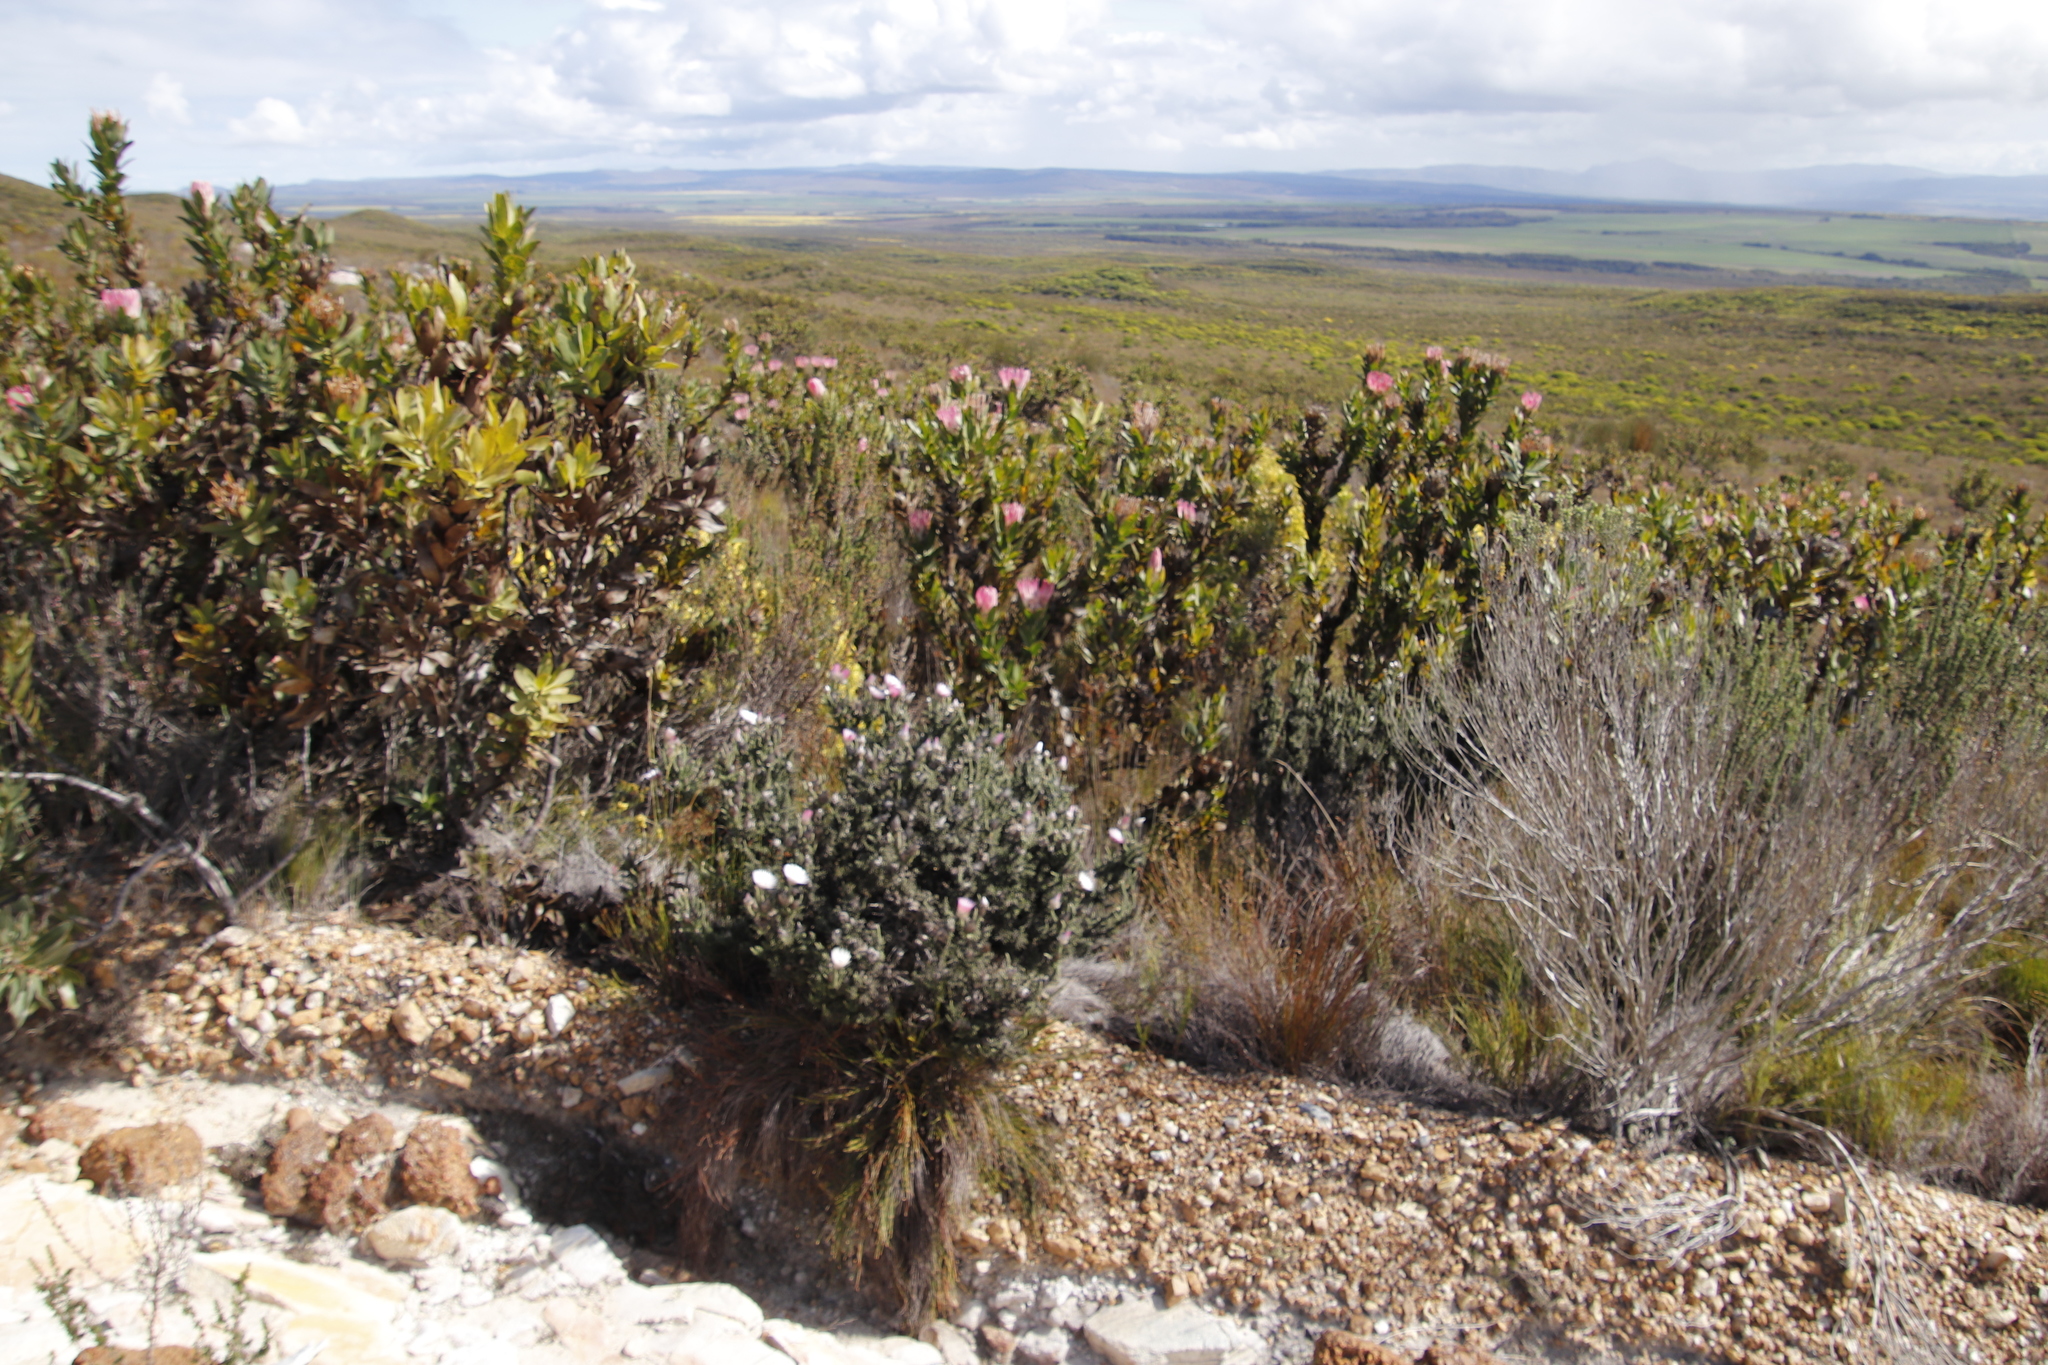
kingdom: Plantae
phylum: Tracheophyta
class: Magnoliopsida
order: Asterales
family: Asteraceae
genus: Phaenocoma
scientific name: Phaenocoma prolifera
